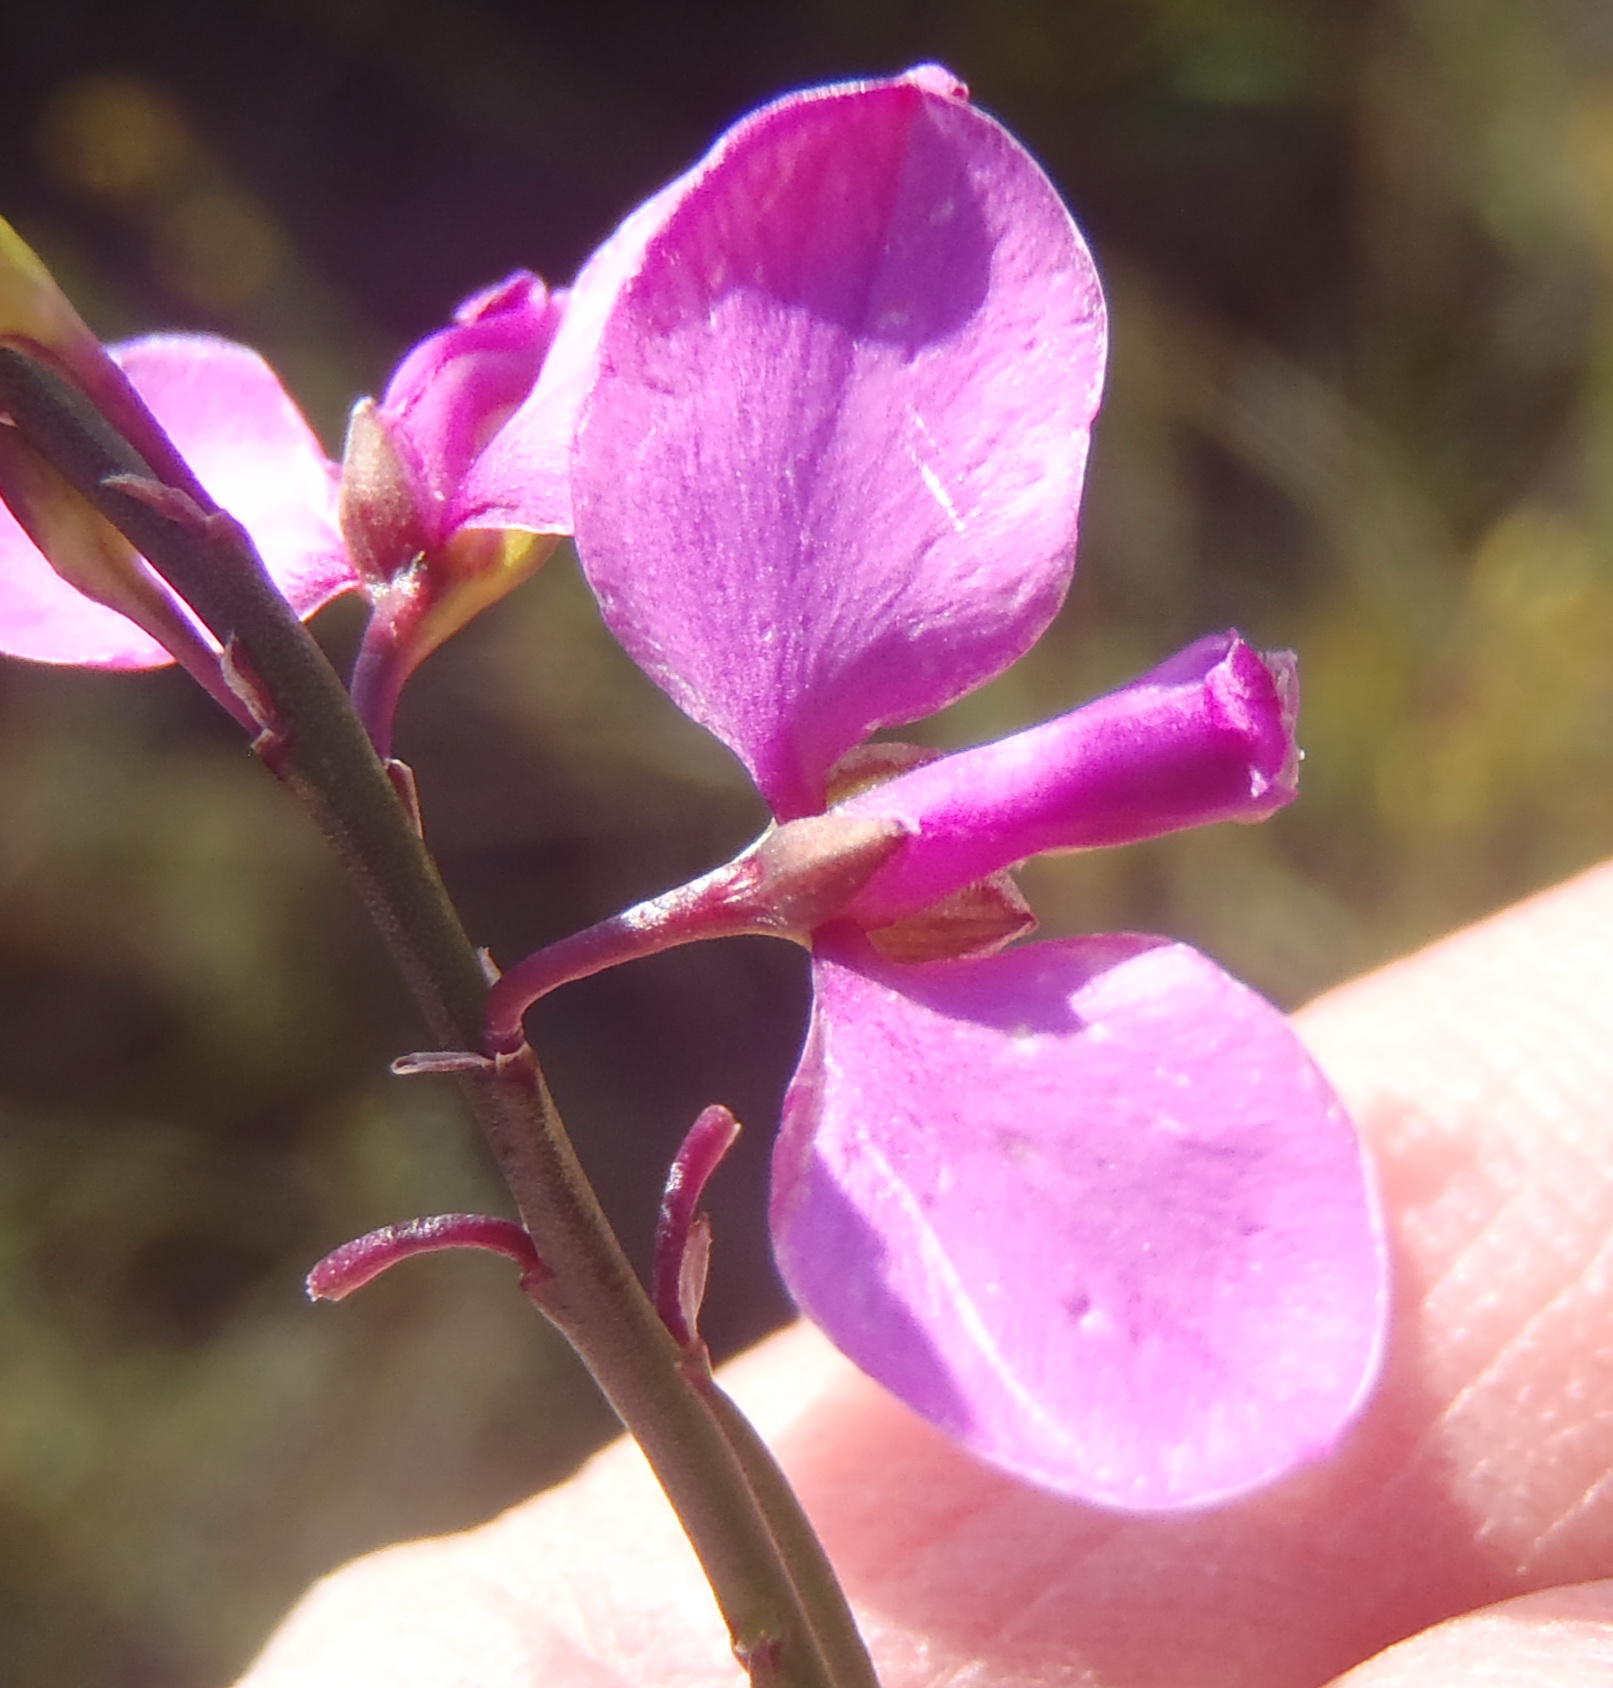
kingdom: Plantae
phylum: Tracheophyta
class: Magnoliopsida
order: Fabales
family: Polygalaceae
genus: Polygala
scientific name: Polygala garcini
